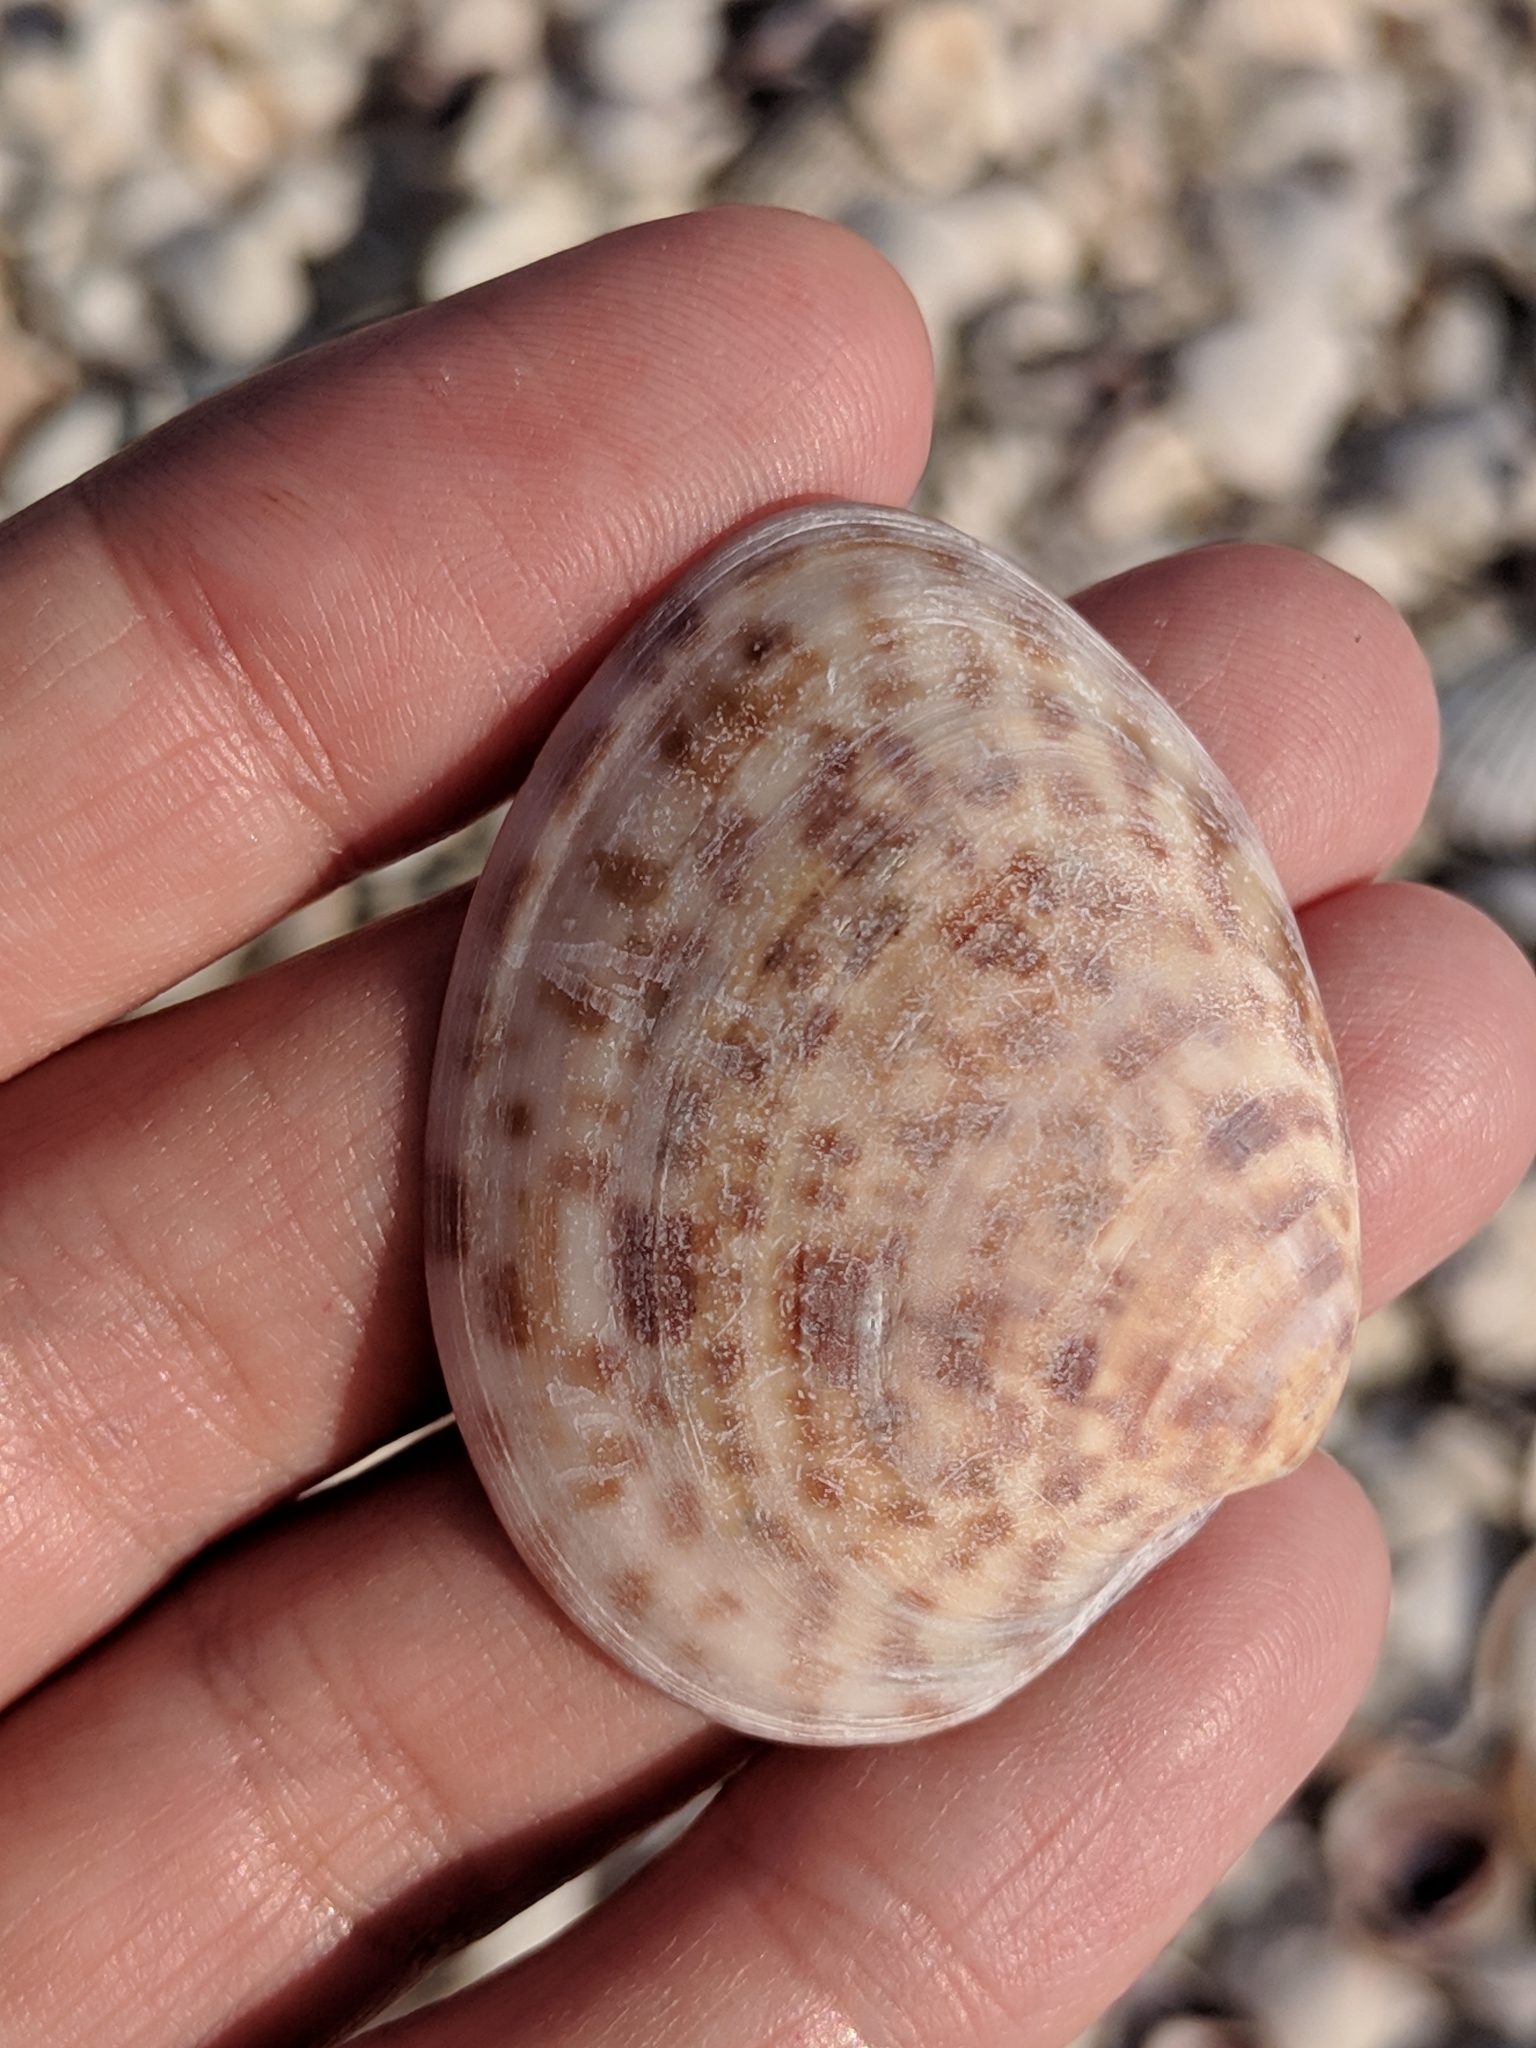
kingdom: Animalia
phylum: Mollusca
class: Bivalvia
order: Venerida
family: Veneridae
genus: Megapitaria
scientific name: Megapitaria maculata
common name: Calico clam
